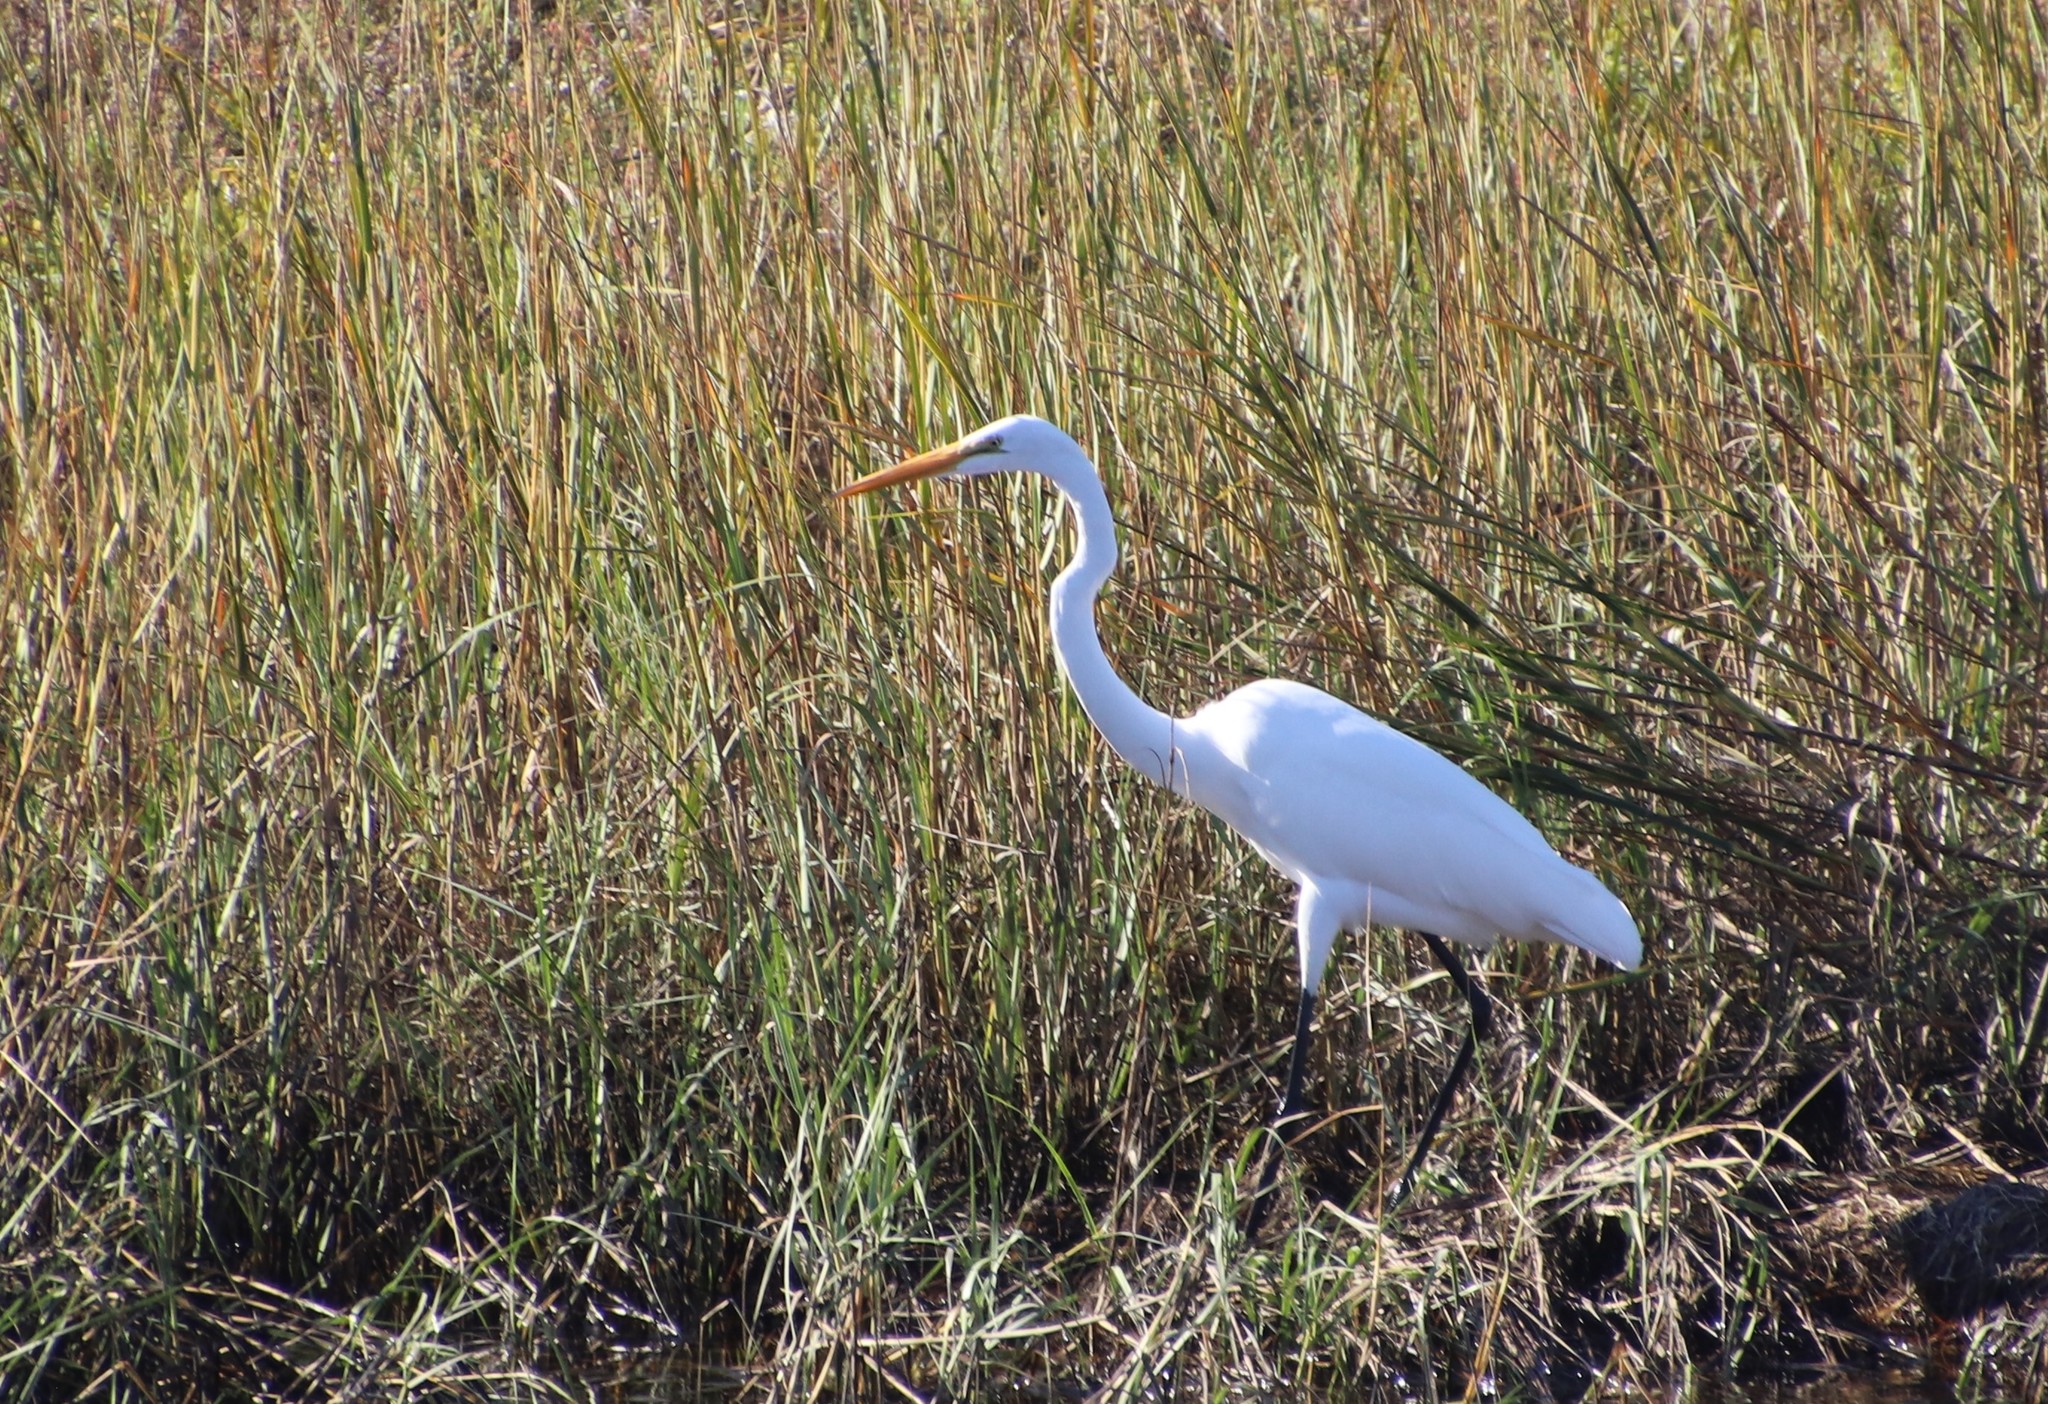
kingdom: Animalia
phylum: Chordata
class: Aves
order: Pelecaniformes
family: Ardeidae
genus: Ardea
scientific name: Ardea alba
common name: Great egret
